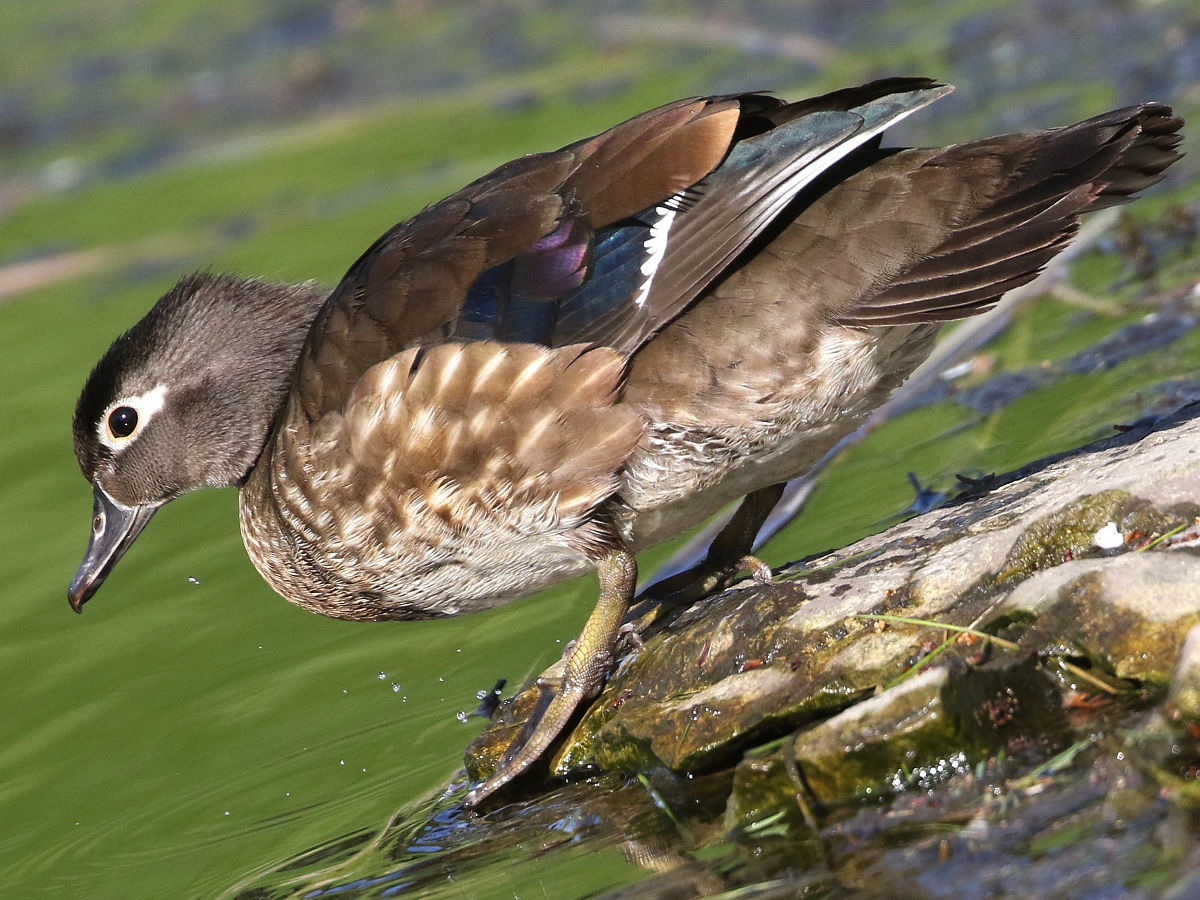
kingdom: Animalia
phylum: Chordata
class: Aves
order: Anseriformes
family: Anatidae
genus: Aix
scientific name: Aix sponsa
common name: Wood duck
